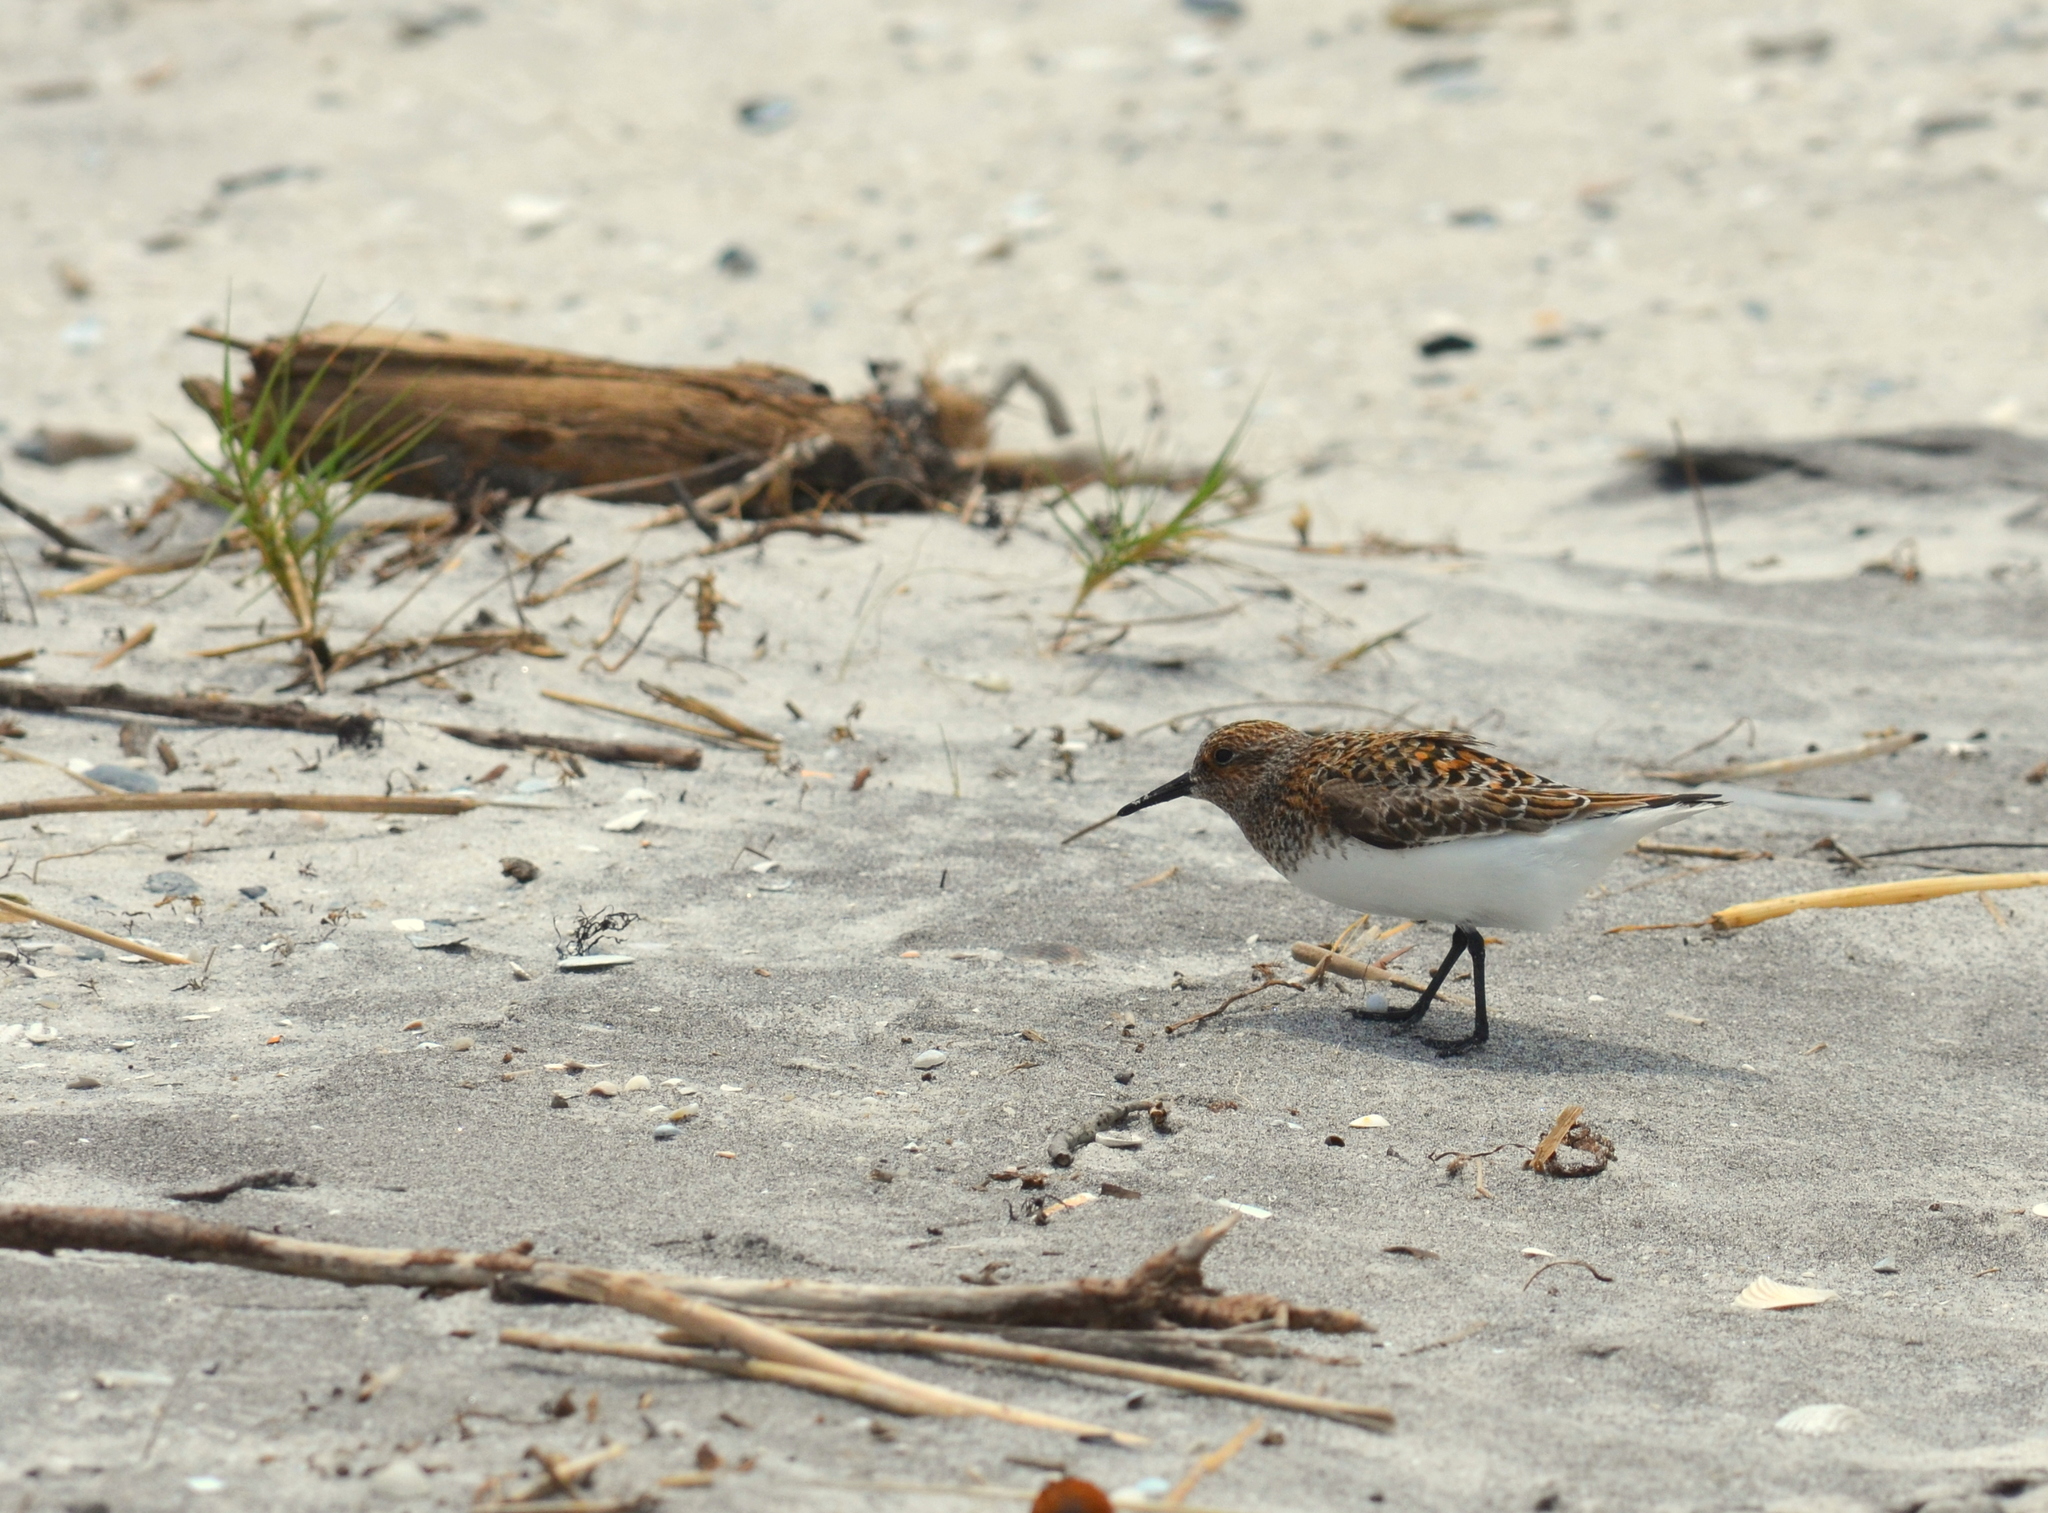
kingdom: Animalia
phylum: Chordata
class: Aves
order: Charadriiformes
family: Scolopacidae
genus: Calidris
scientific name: Calidris alba
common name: Sanderling
